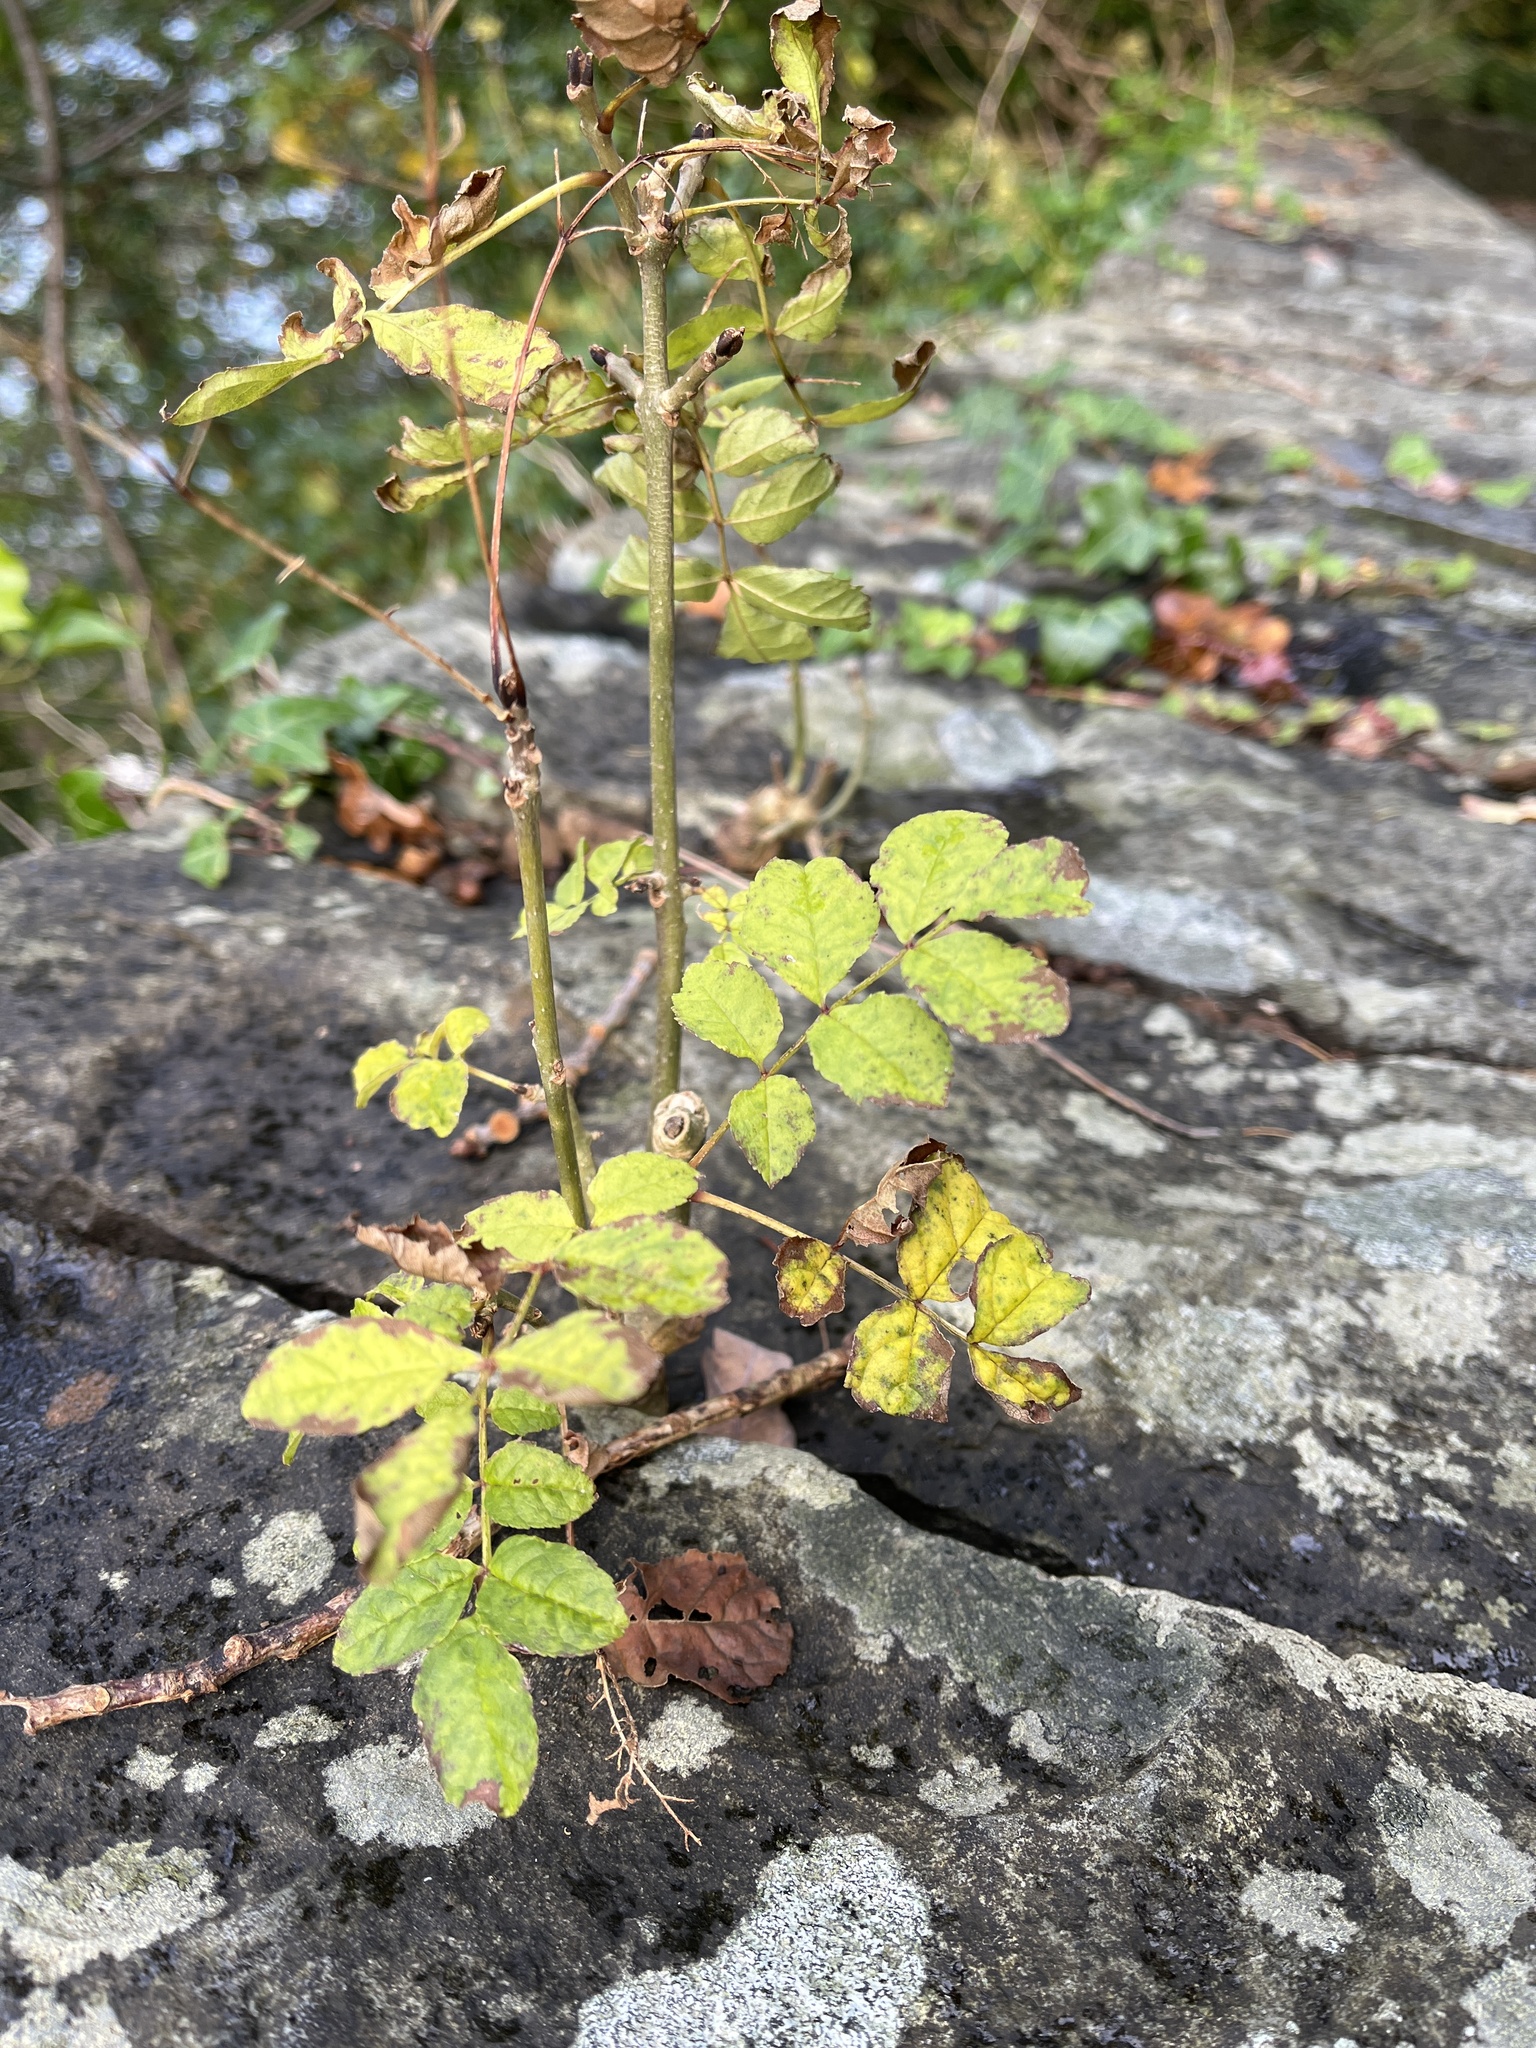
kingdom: Plantae
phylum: Tracheophyta
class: Magnoliopsida
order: Lamiales
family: Oleaceae
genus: Fraxinus
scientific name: Fraxinus excelsior
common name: European ash
